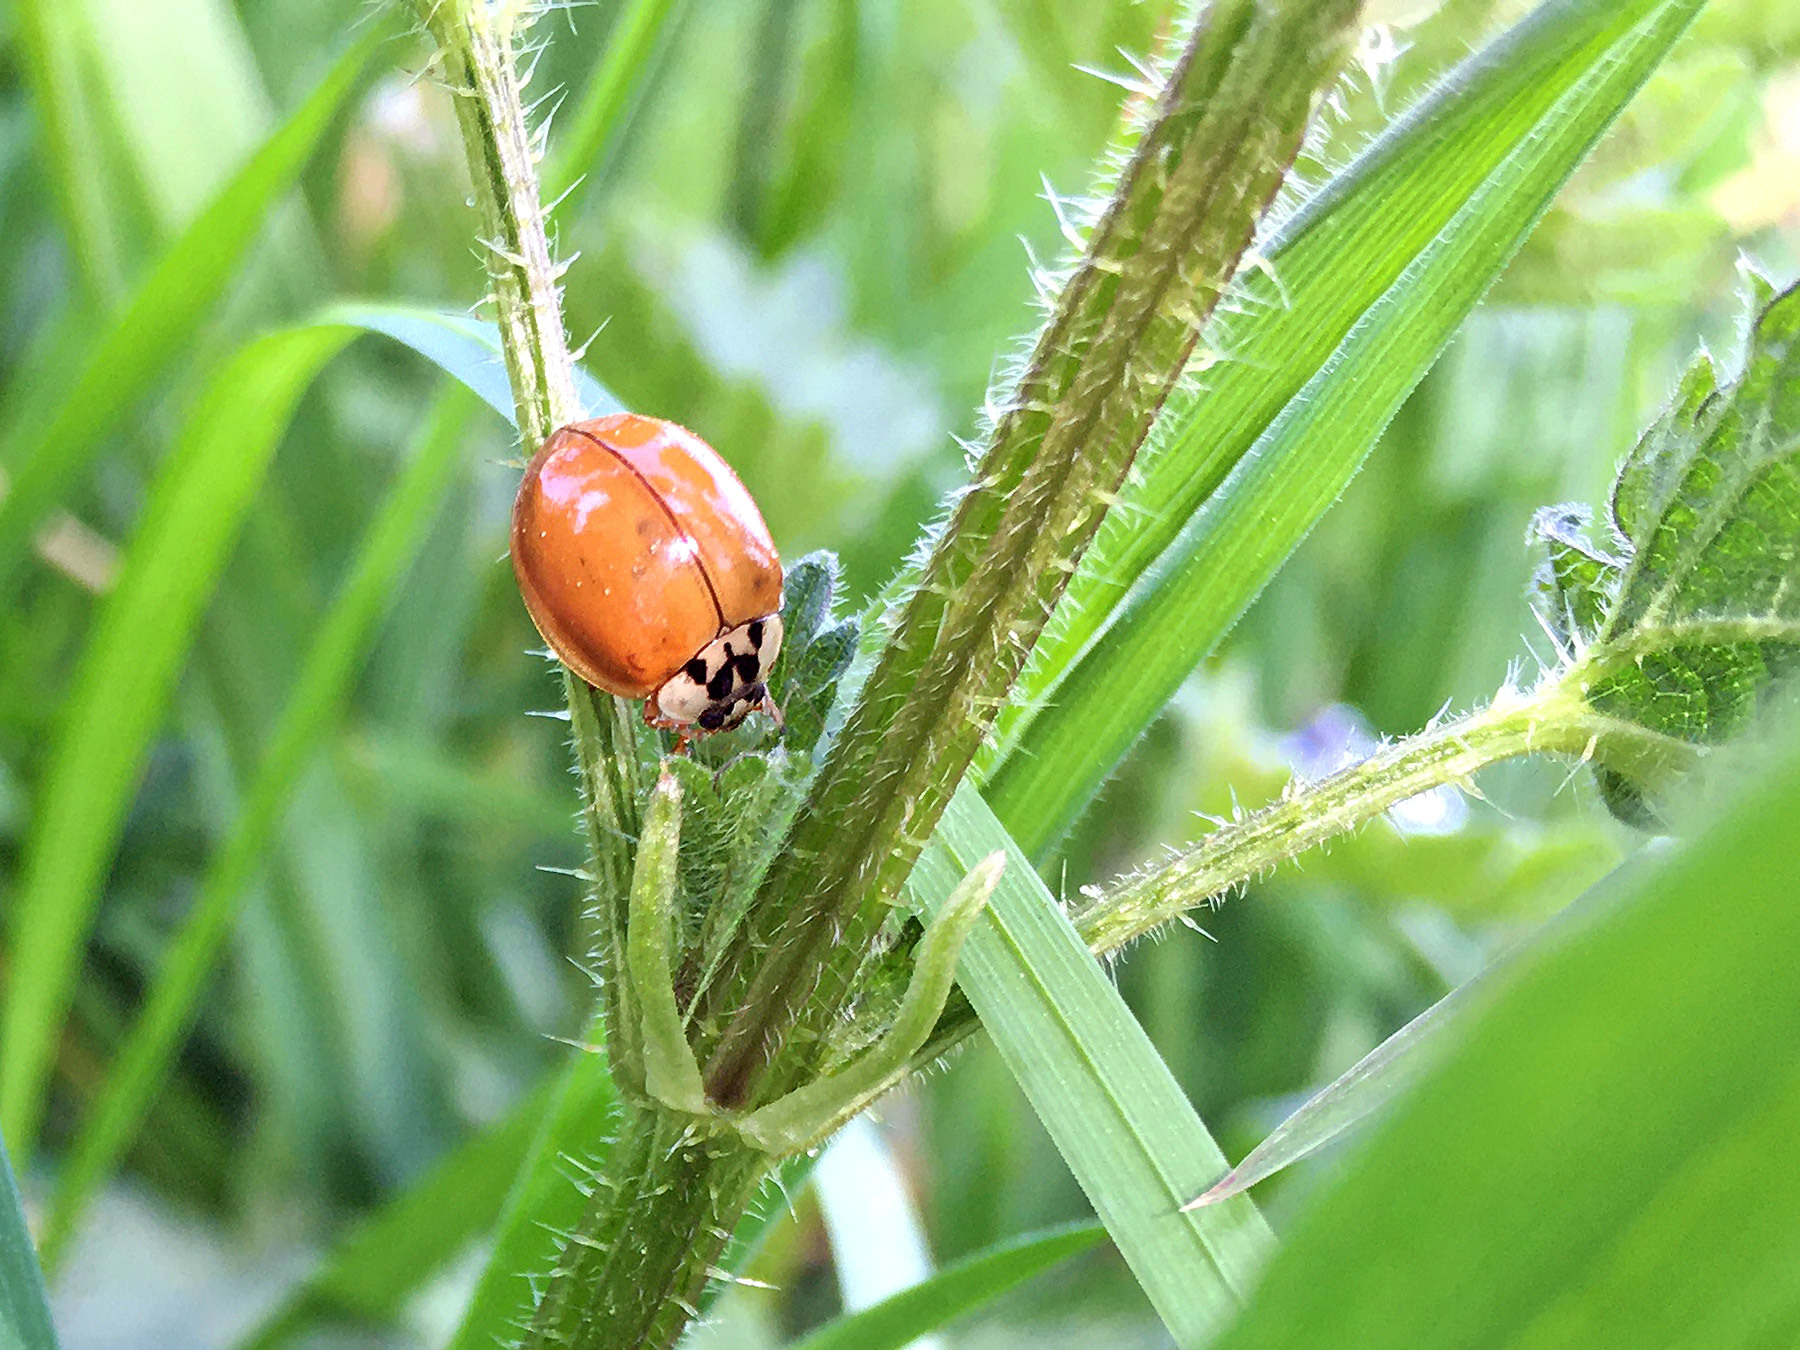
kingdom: Animalia
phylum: Arthropoda
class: Insecta
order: Coleoptera
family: Coccinellidae
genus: Harmonia
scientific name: Harmonia axyridis
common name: Harlequin ladybird
